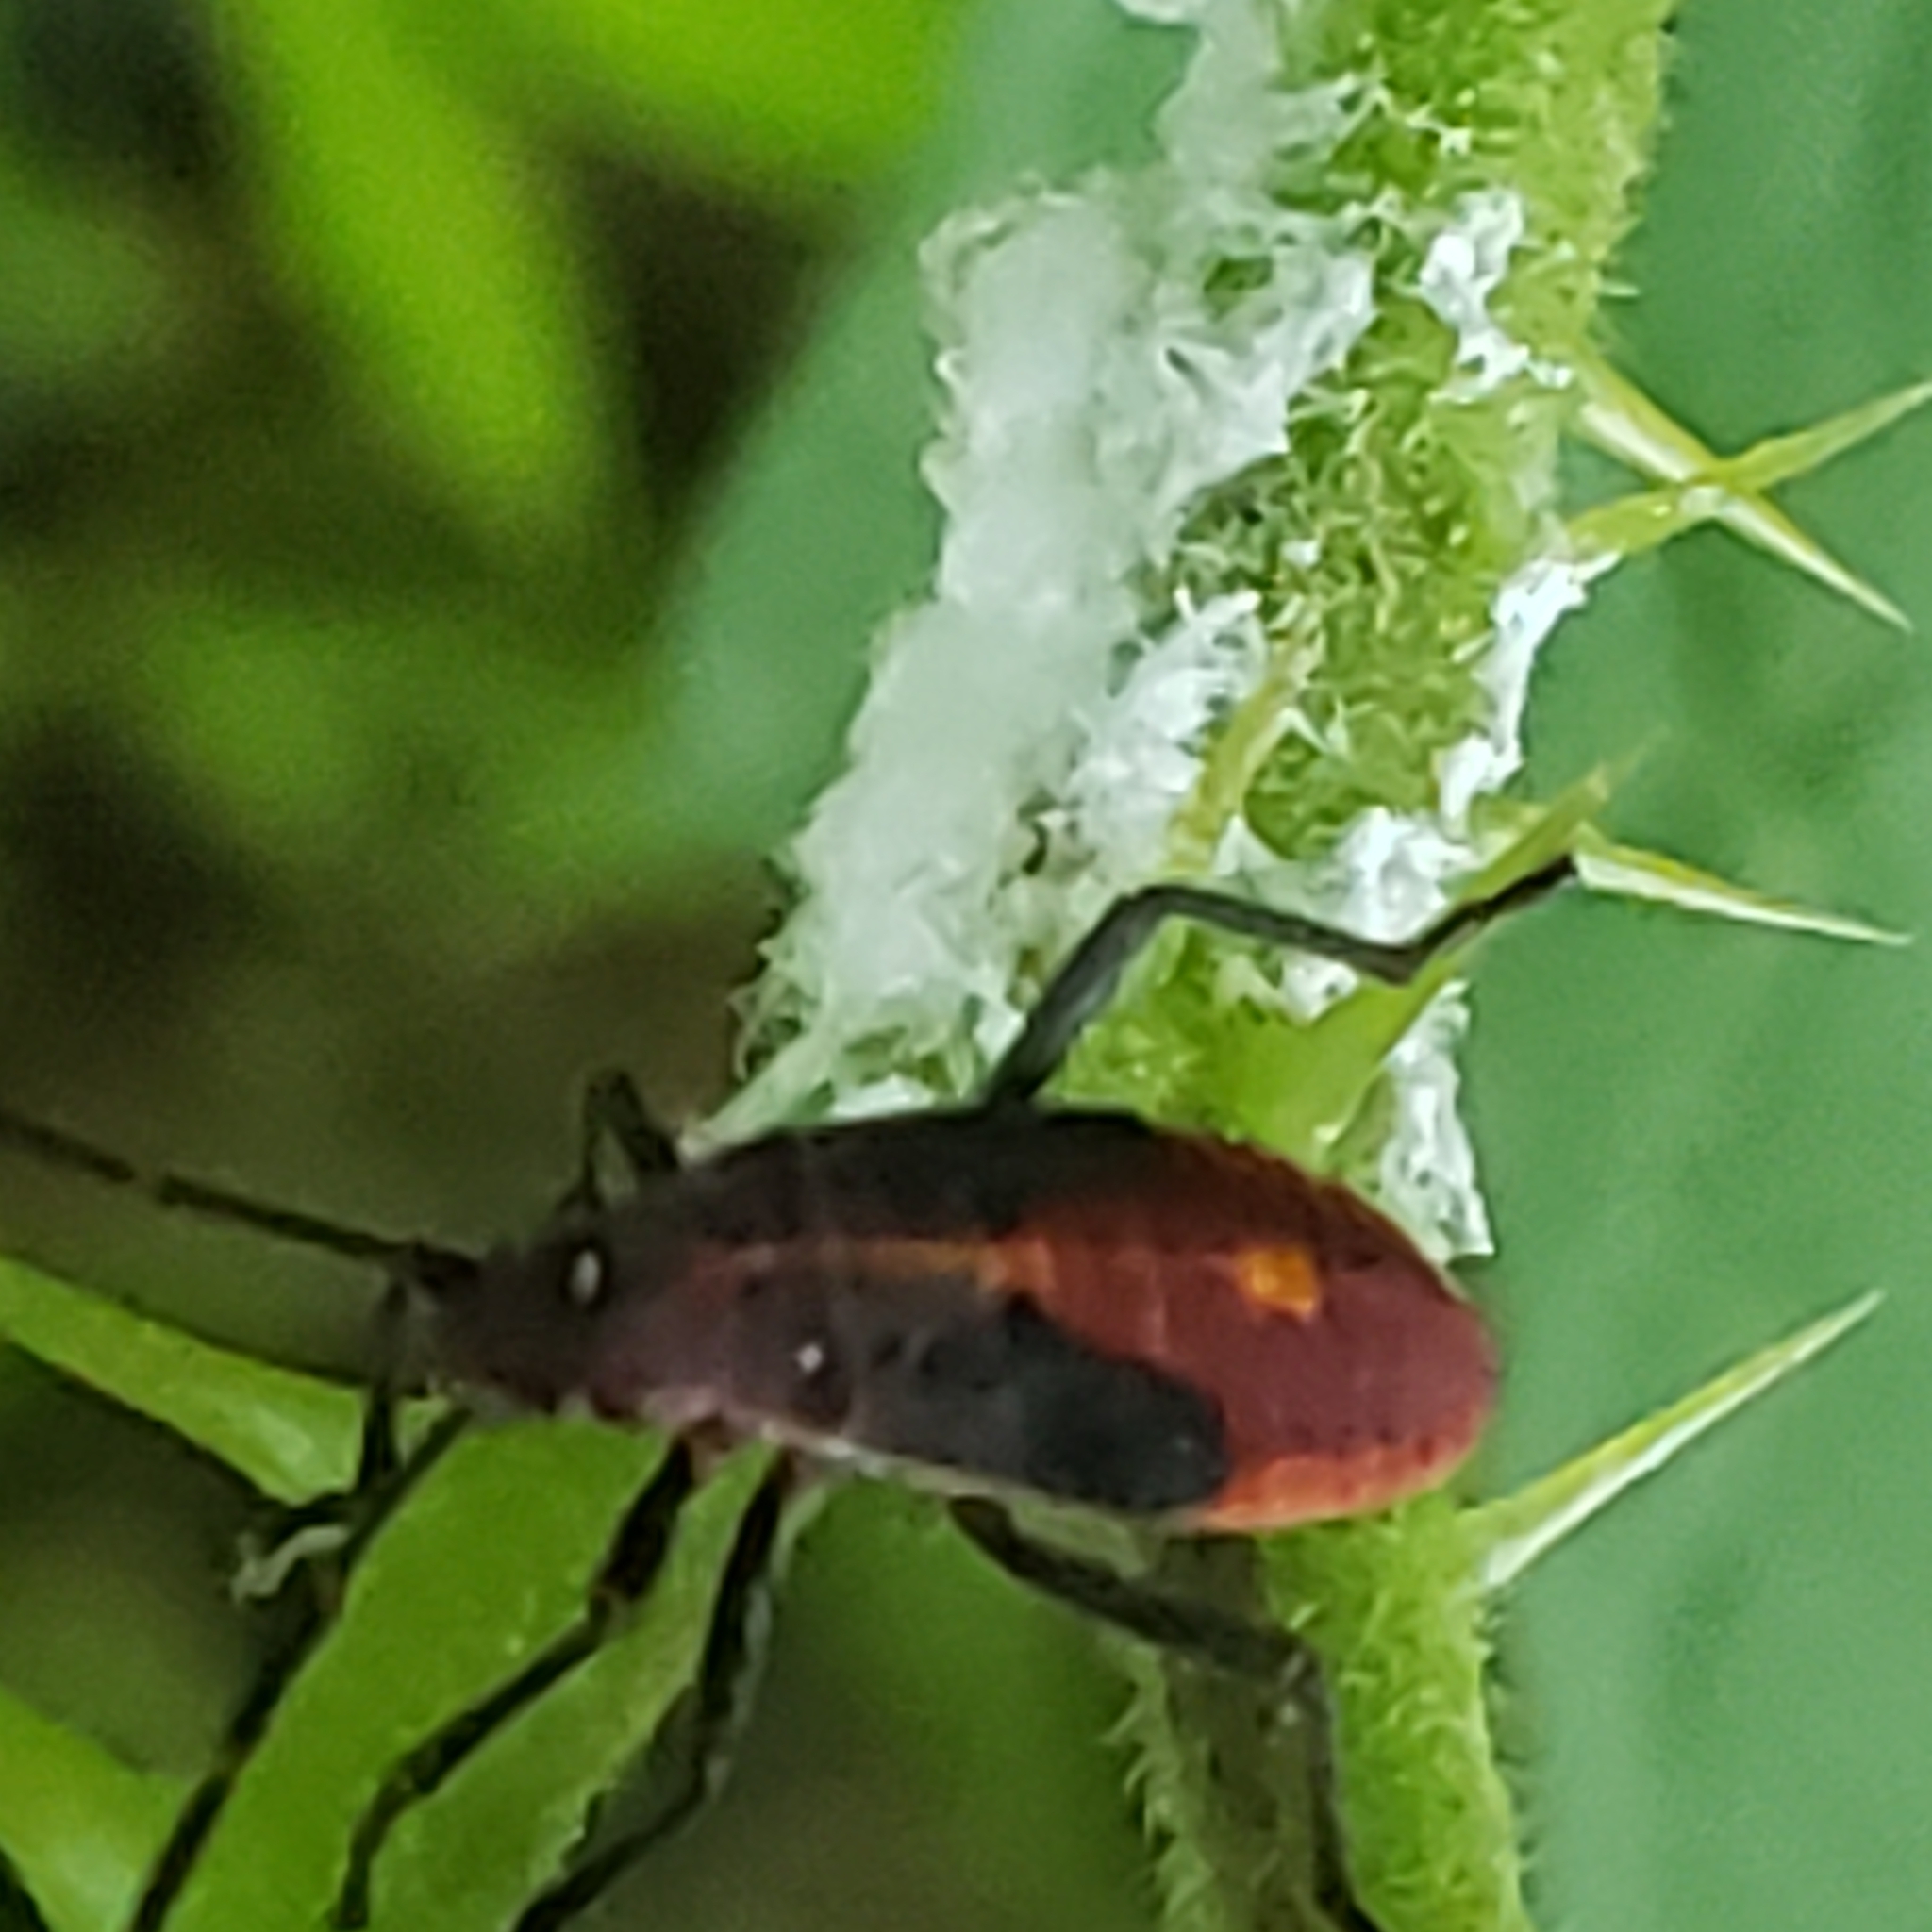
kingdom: Animalia
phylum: Arthropoda
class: Insecta
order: Hemiptera
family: Rhopalidae
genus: Boisea
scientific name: Boisea trivittata
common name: Boxelder bug
